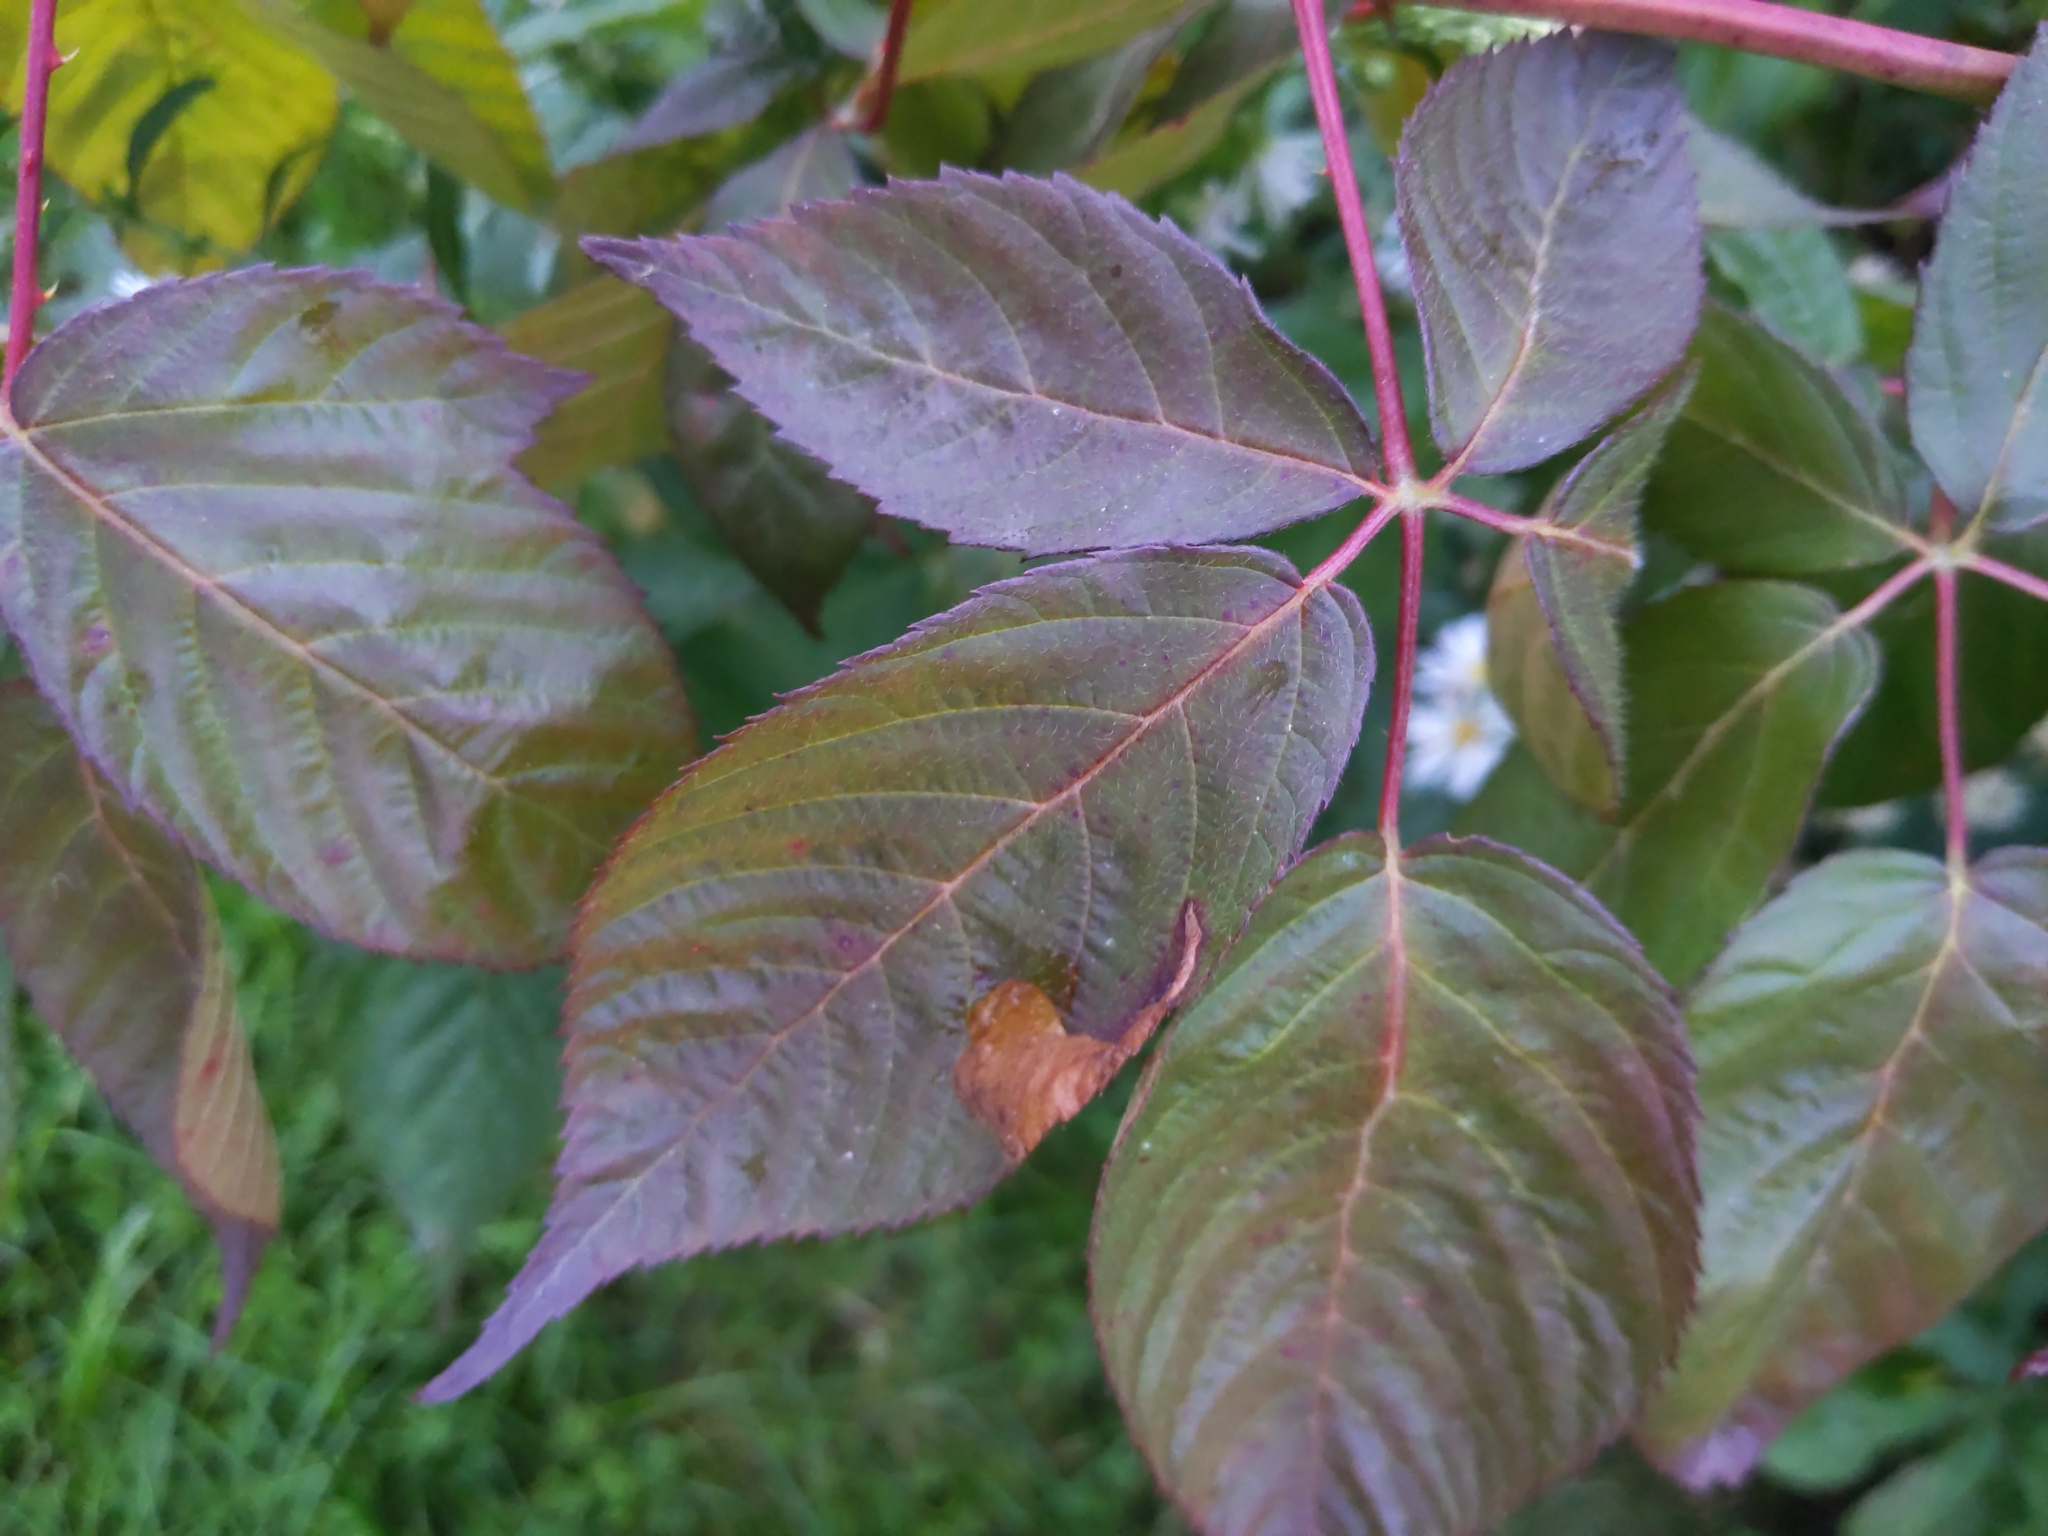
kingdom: Animalia
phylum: Arthropoda
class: Insecta
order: Hymenoptera
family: Tenthredinidae
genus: Metallus
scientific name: Metallus rohweri
